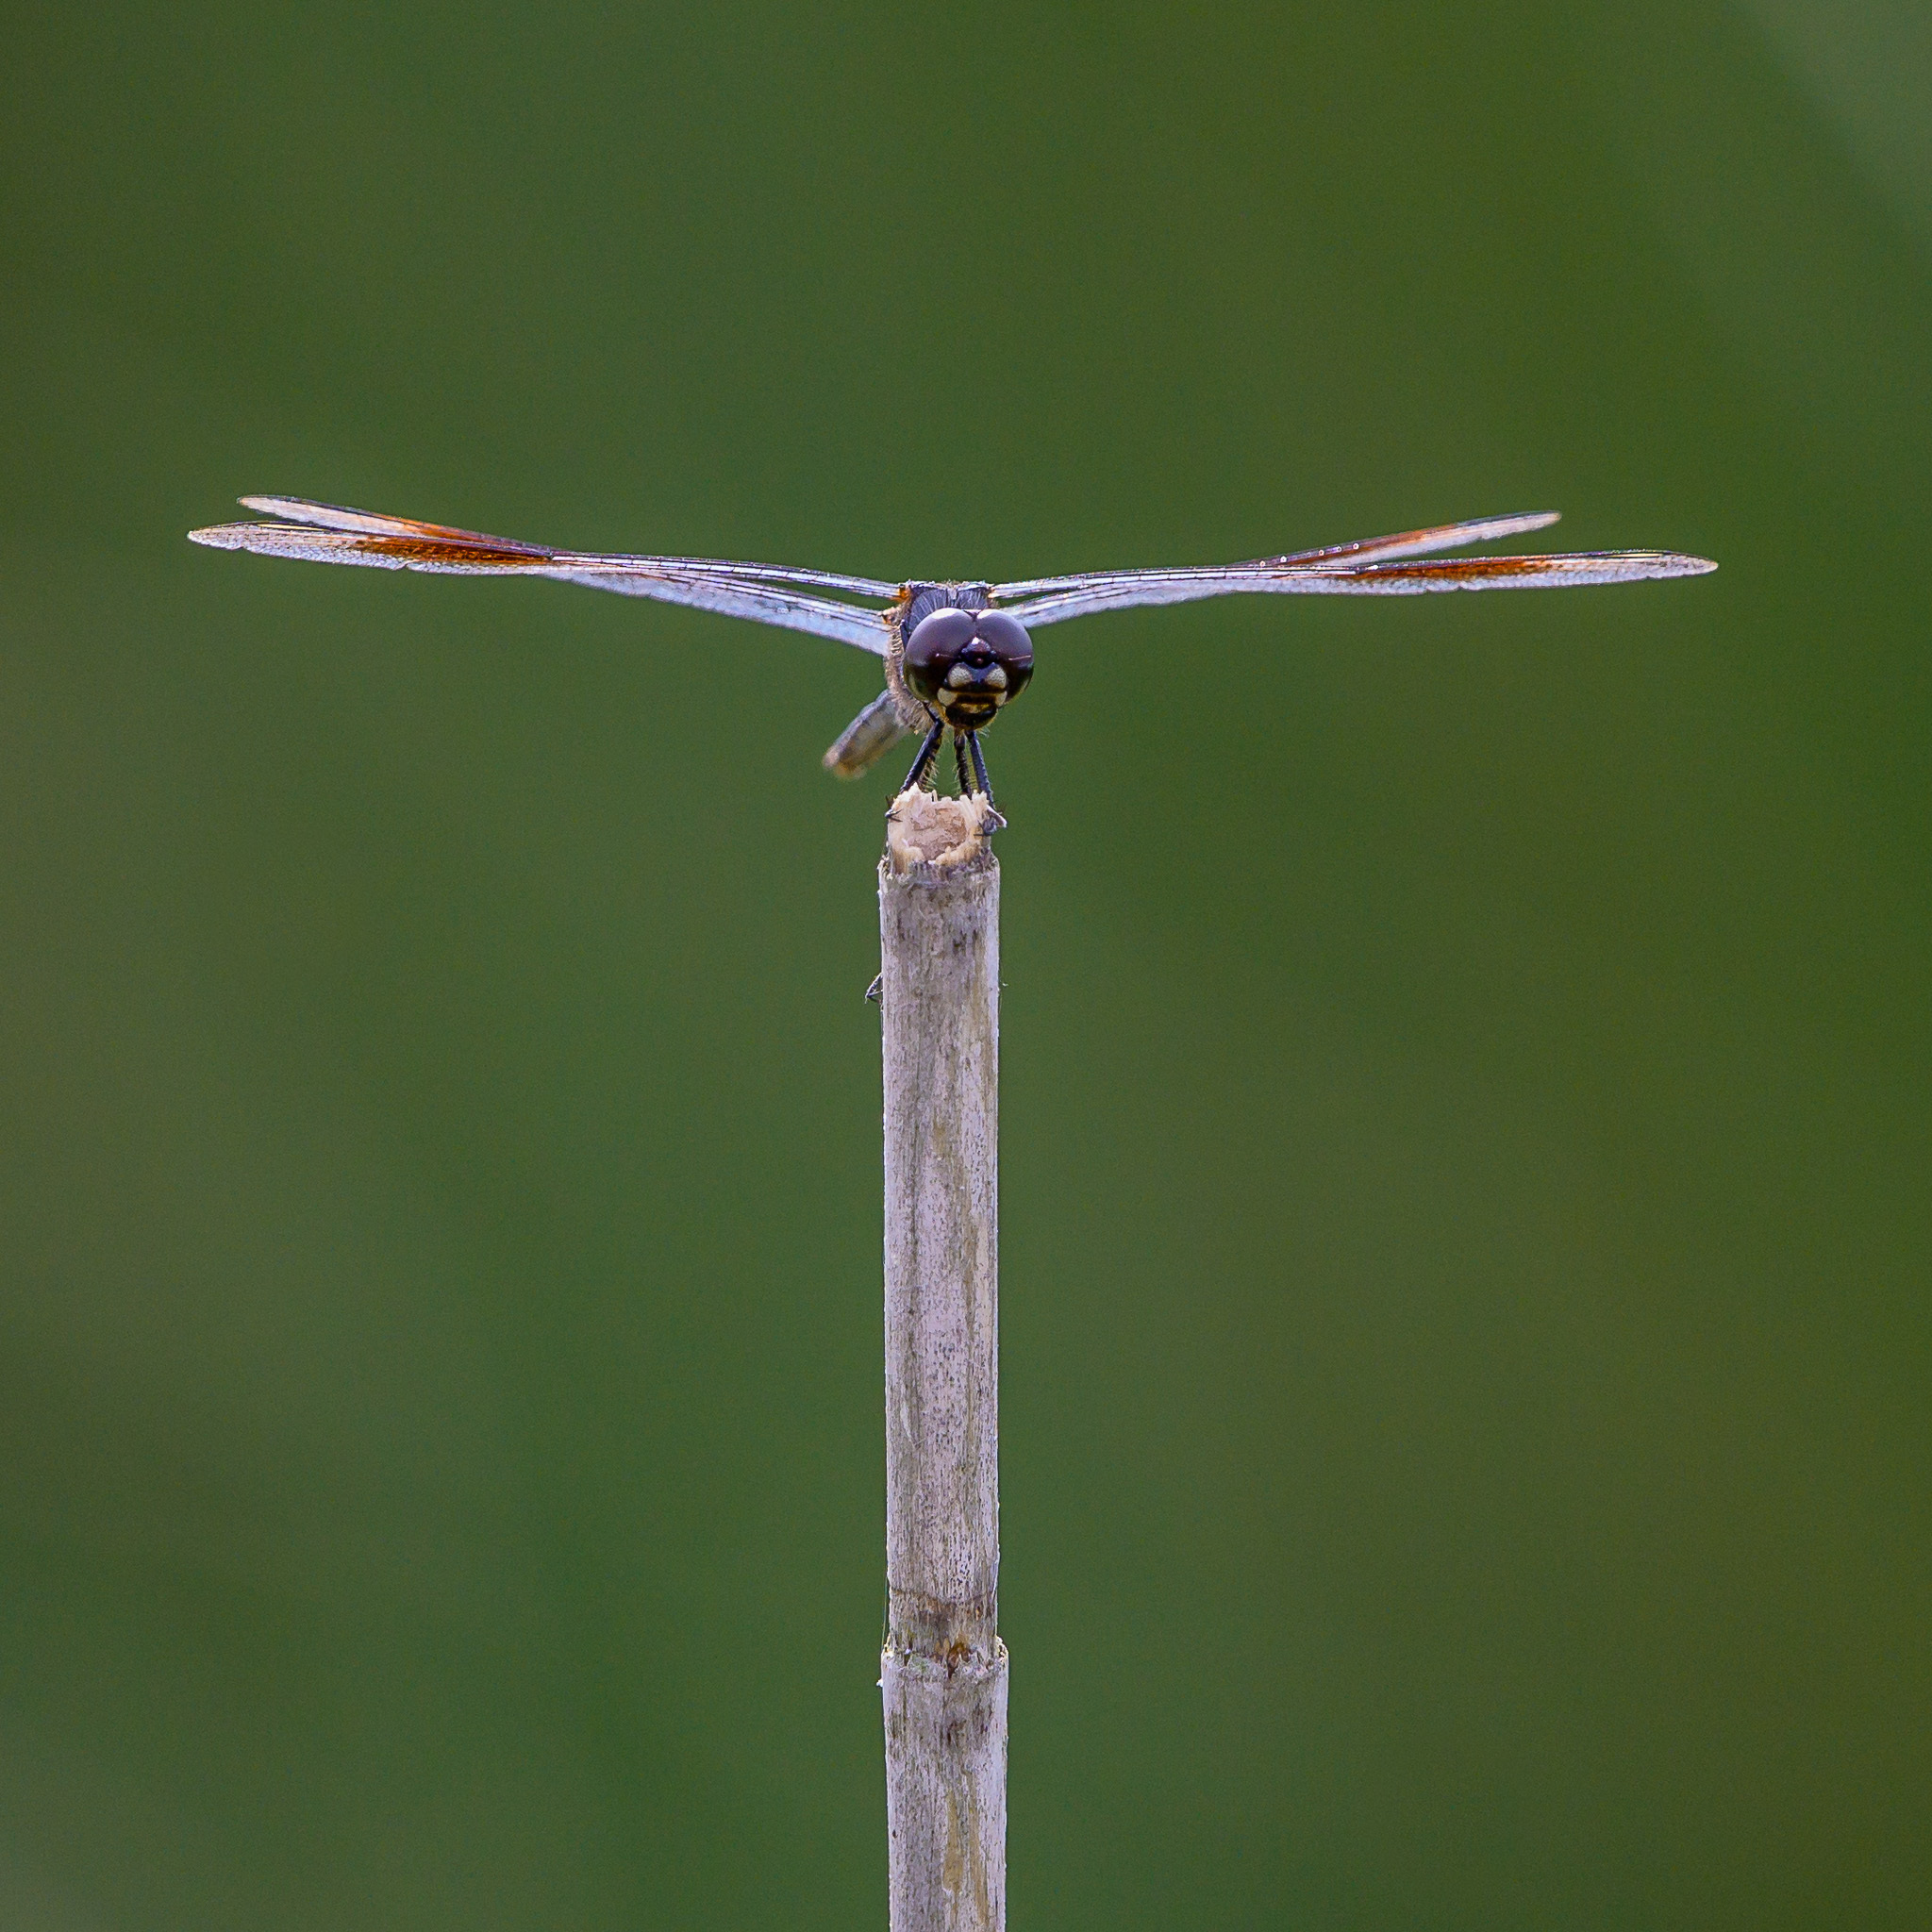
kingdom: Animalia
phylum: Arthropoda
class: Insecta
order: Odonata
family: Libellulidae
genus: Brachymesia
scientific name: Brachymesia gravida
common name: Four-spotted pennant
